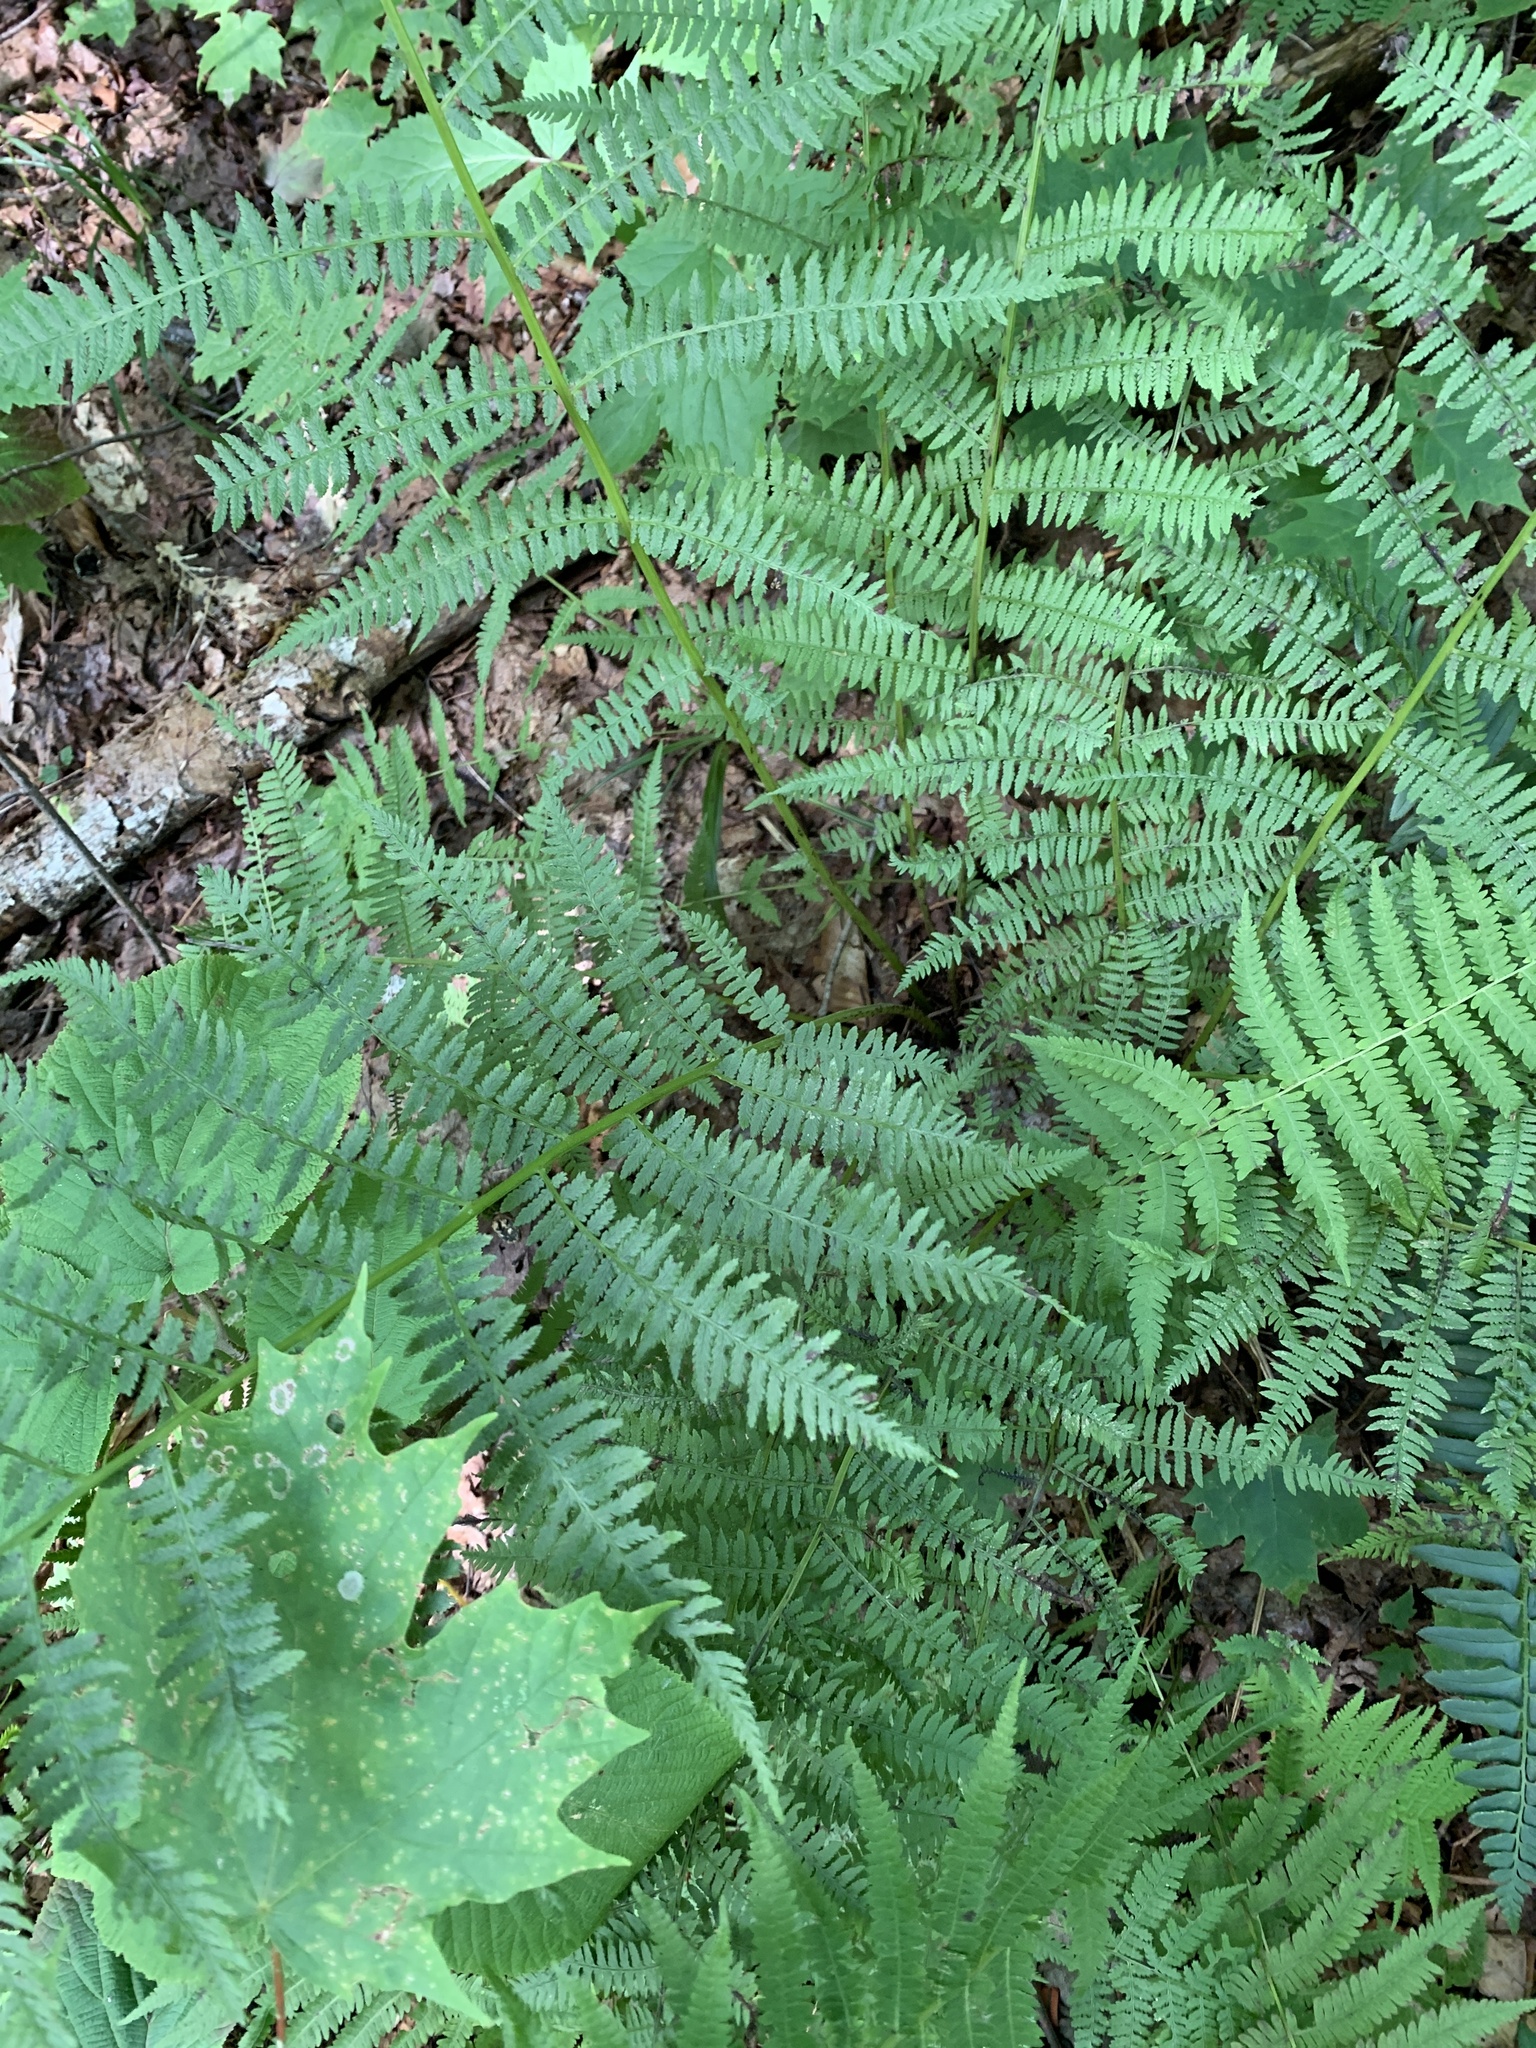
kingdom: Plantae
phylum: Tracheophyta
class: Polypodiopsida
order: Polypodiales
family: Athyriaceae
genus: Athyrium
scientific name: Athyrium angustum
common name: Northern lady fern
